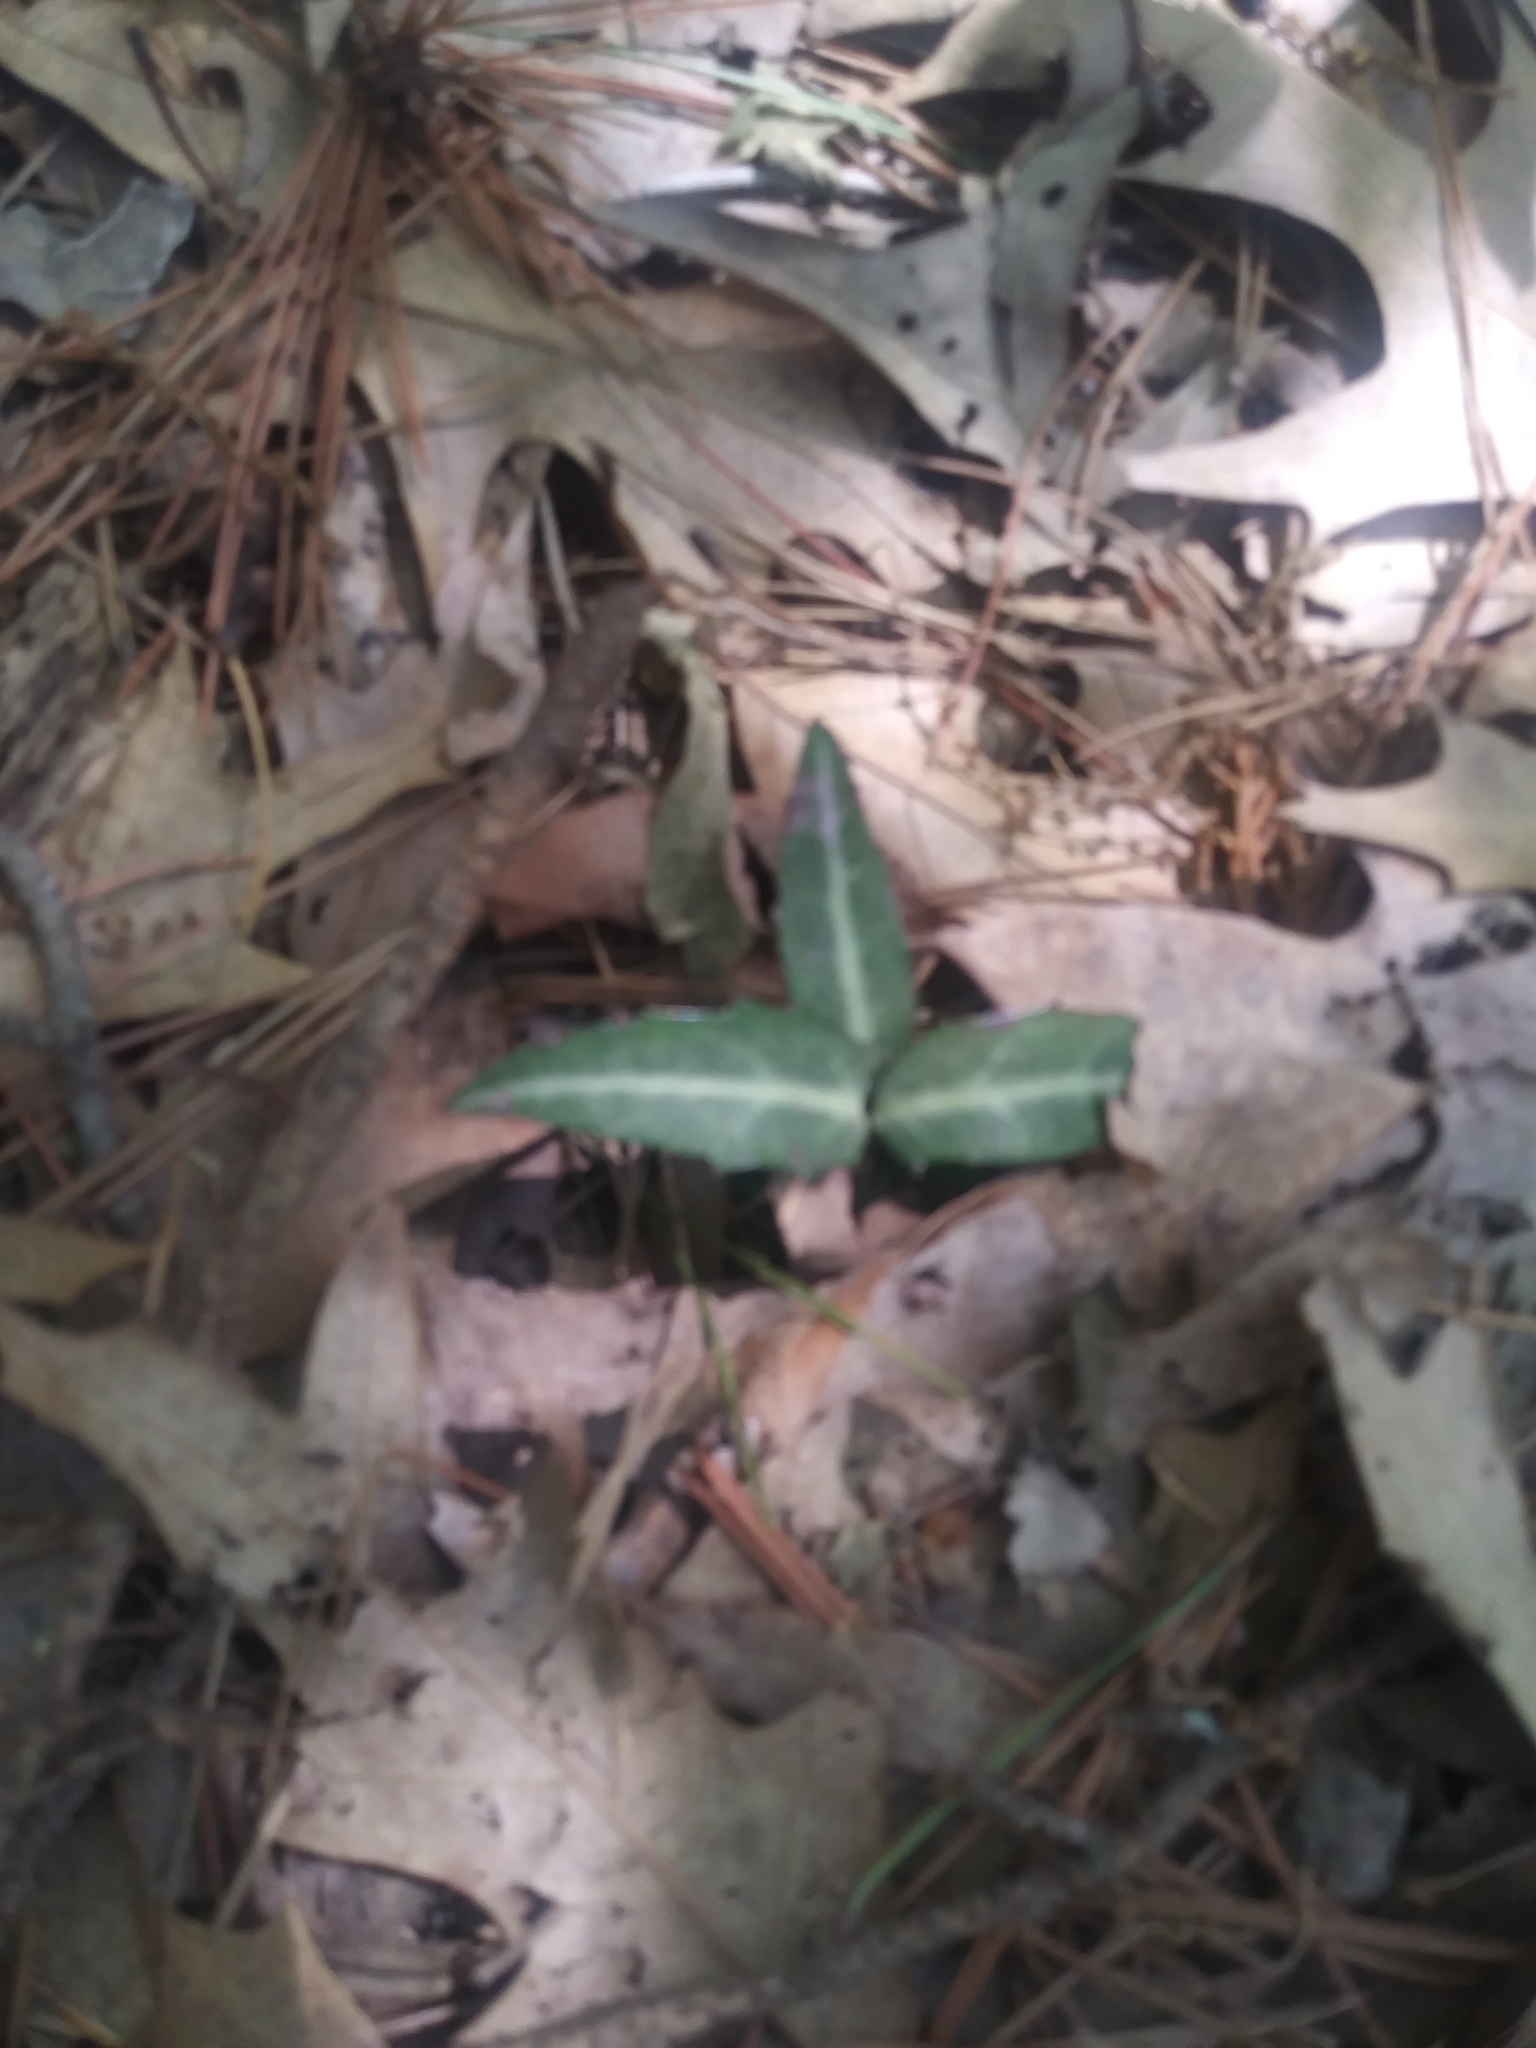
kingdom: Plantae
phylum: Tracheophyta
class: Magnoliopsida
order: Ericales
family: Ericaceae
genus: Chimaphila
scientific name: Chimaphila maculata
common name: Spotted pipsissewa
